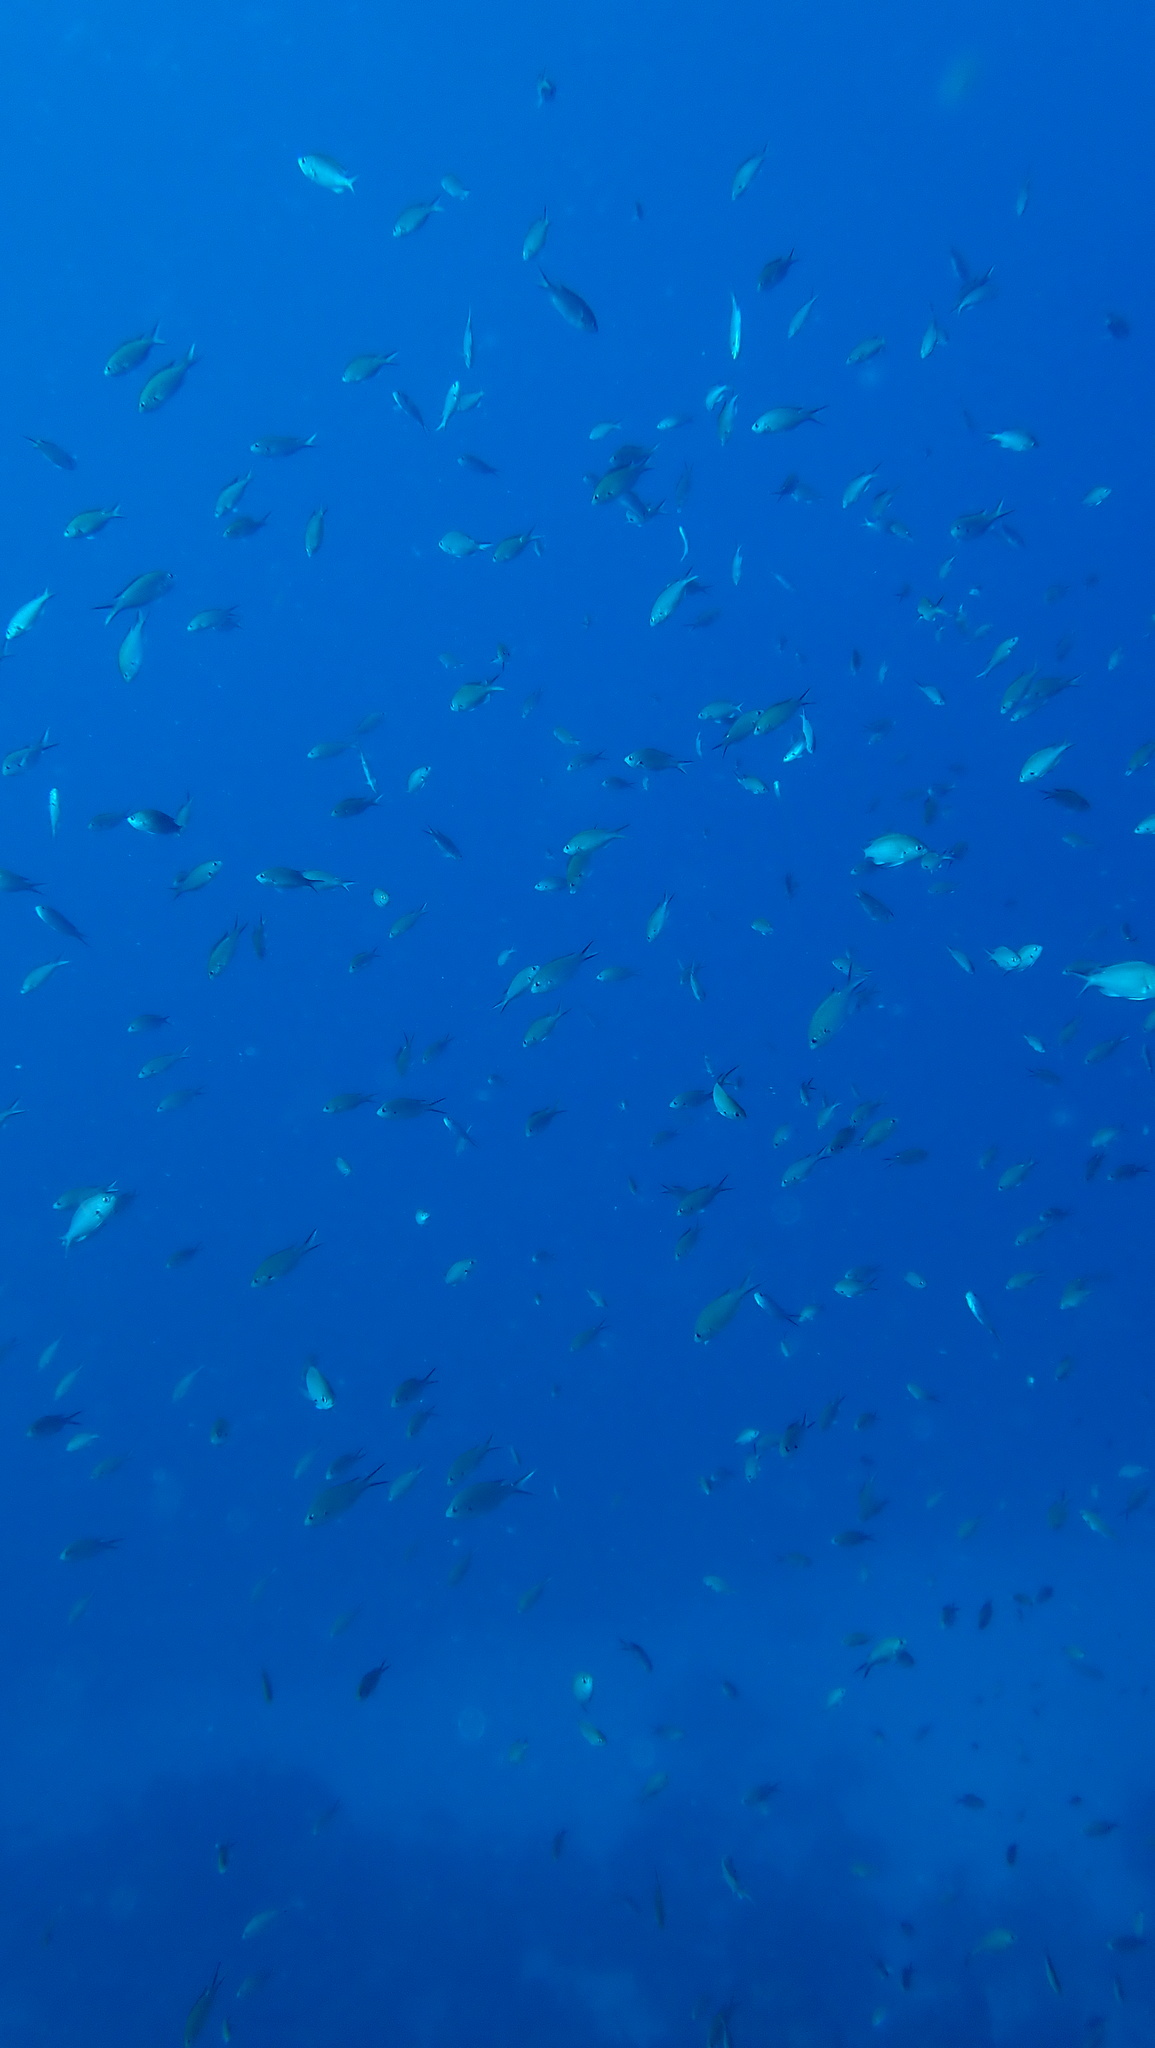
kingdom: Animalia
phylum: Chordata
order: Perciformes
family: Pomacentridae
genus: Chromis
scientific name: Chromis multilineata
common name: Brown chromis
